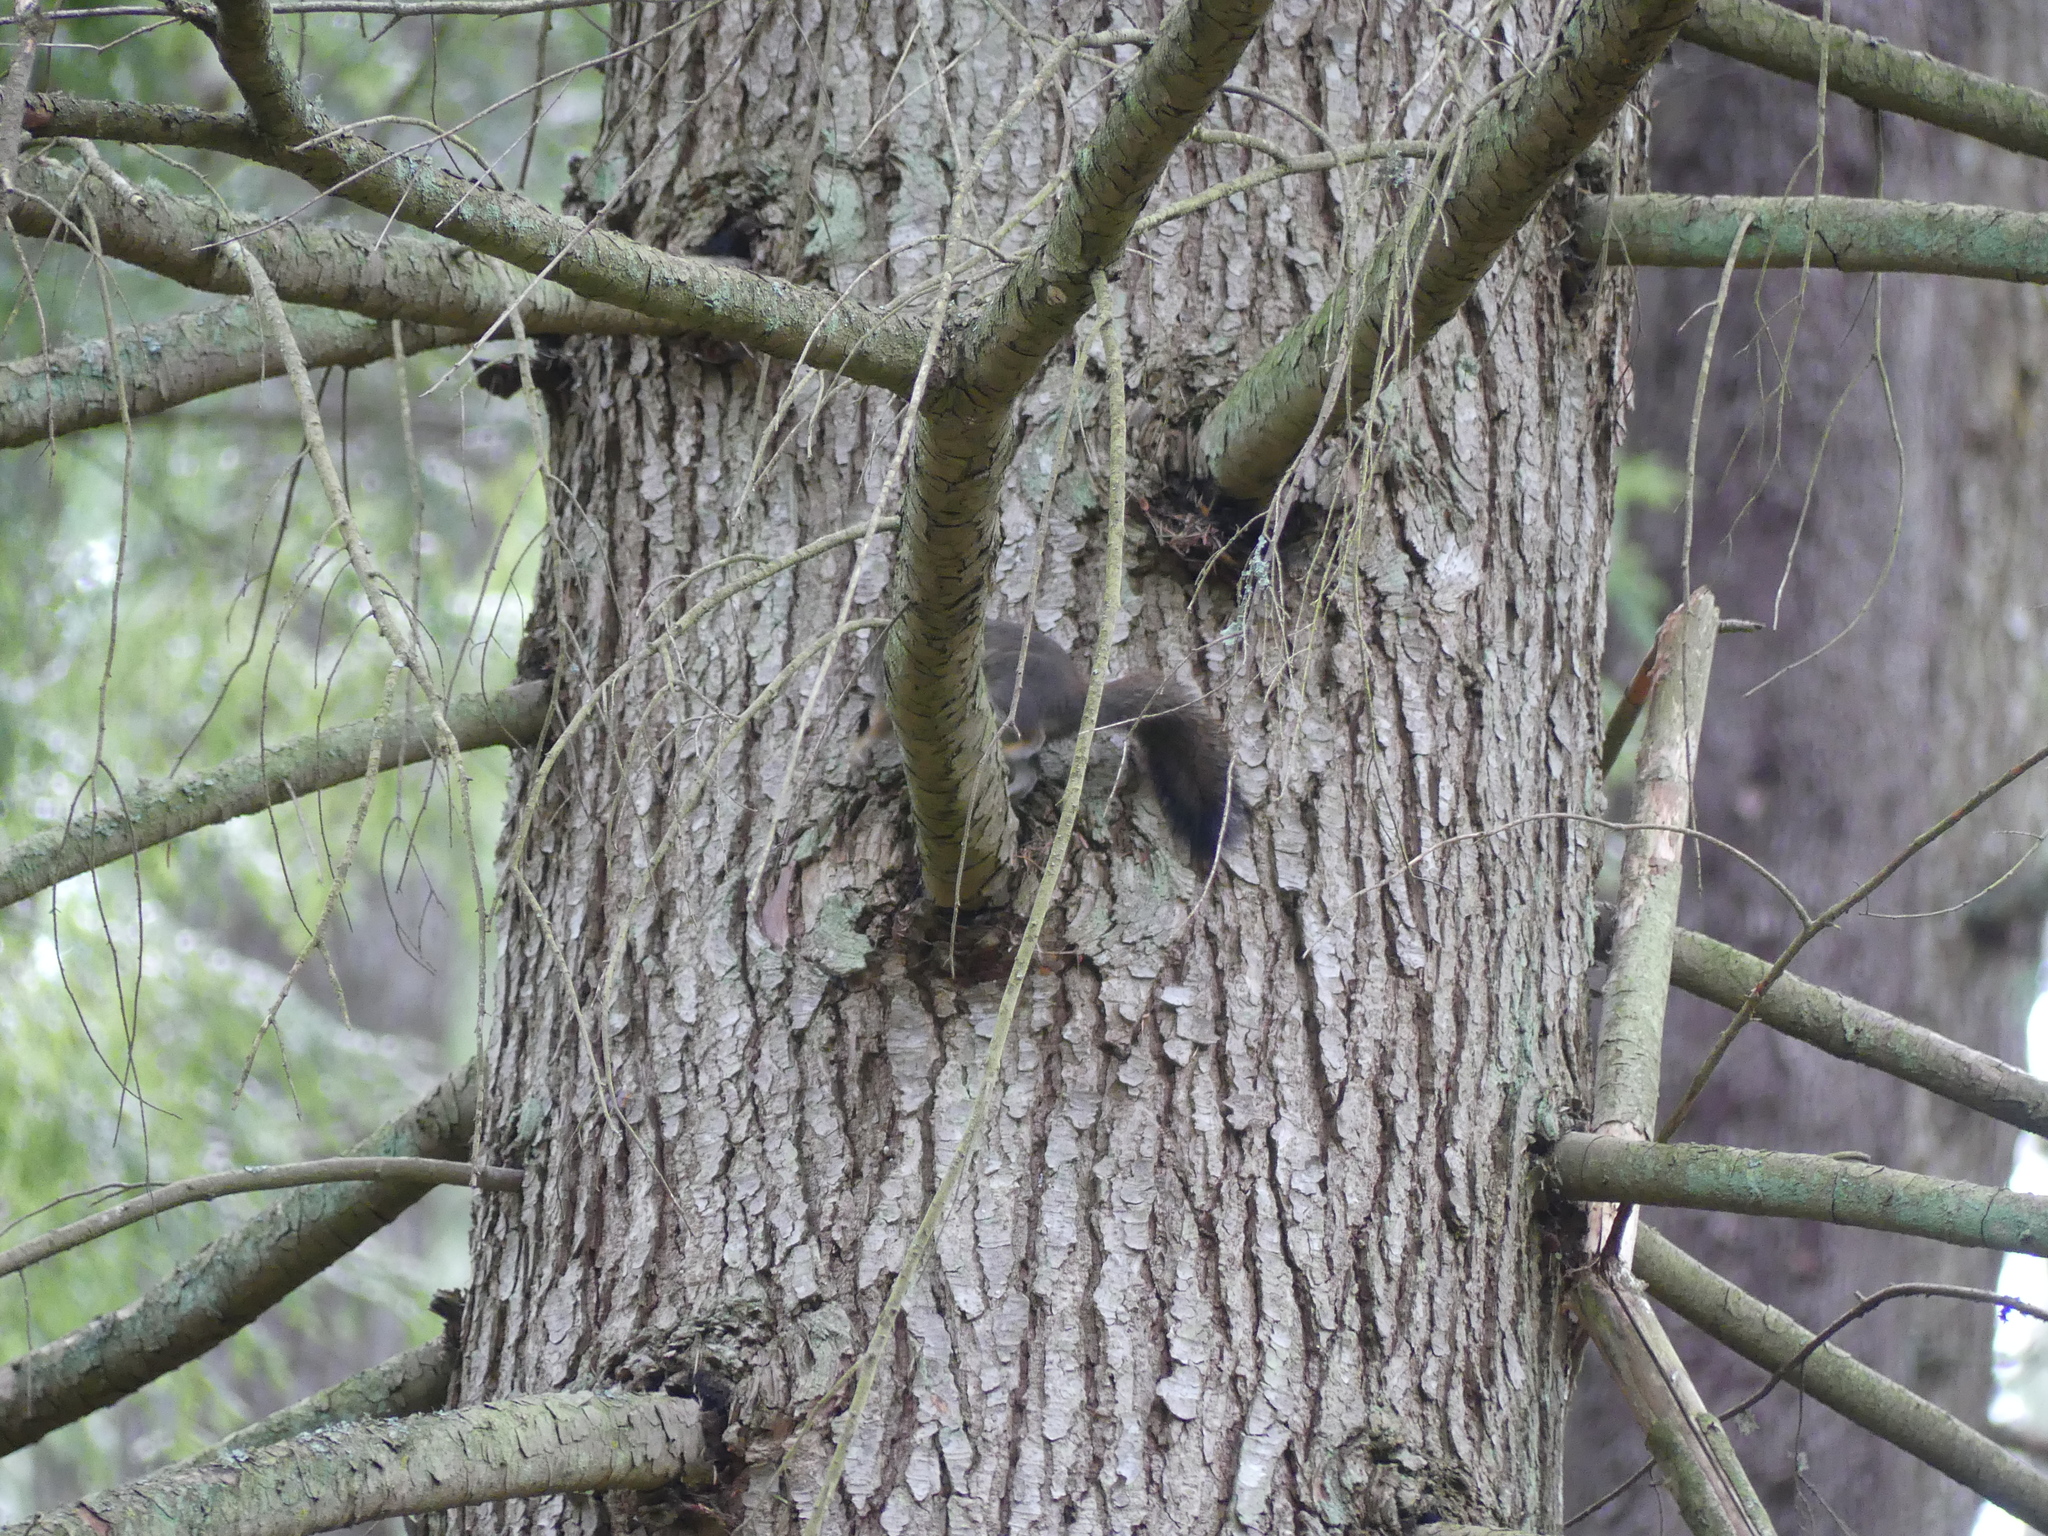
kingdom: Animalia
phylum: Chordata
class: Mammalia
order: Rodentia
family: Sciuridae
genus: Tamiasciurus
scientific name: Tamiasciurus hudsonicus
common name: Red squirrel
